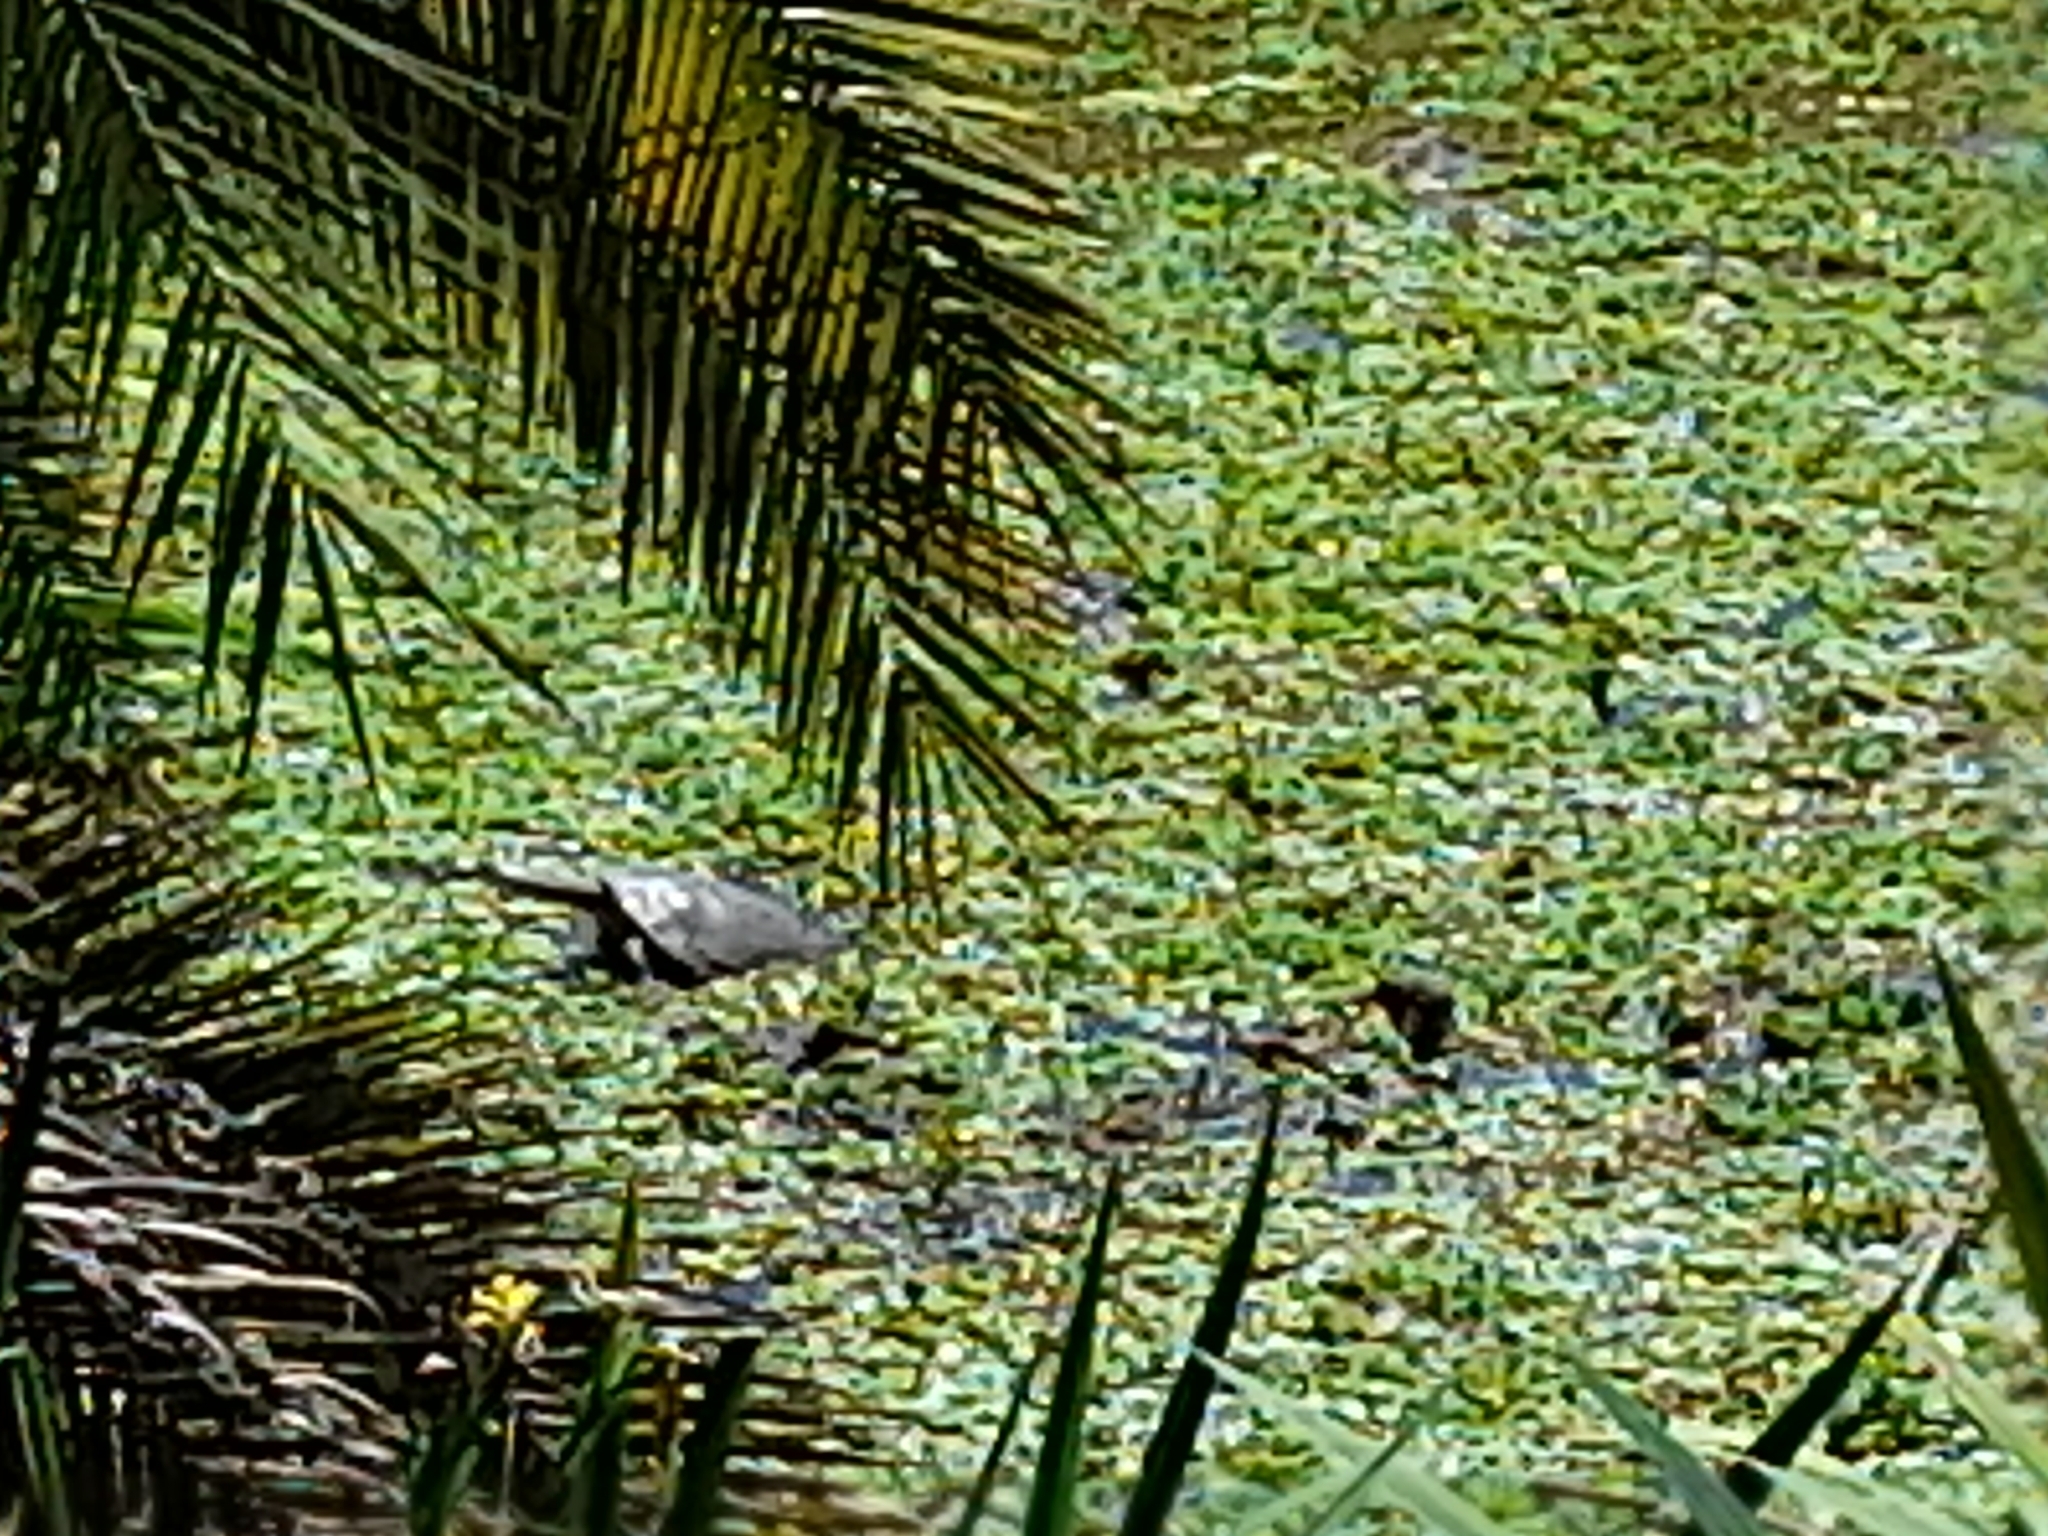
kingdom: Animalia
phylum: Chordata
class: Testudines
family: Chelidae
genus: Phrynops
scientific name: Phrynops hilarii
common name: Side-necked turtle of saint hillaire
